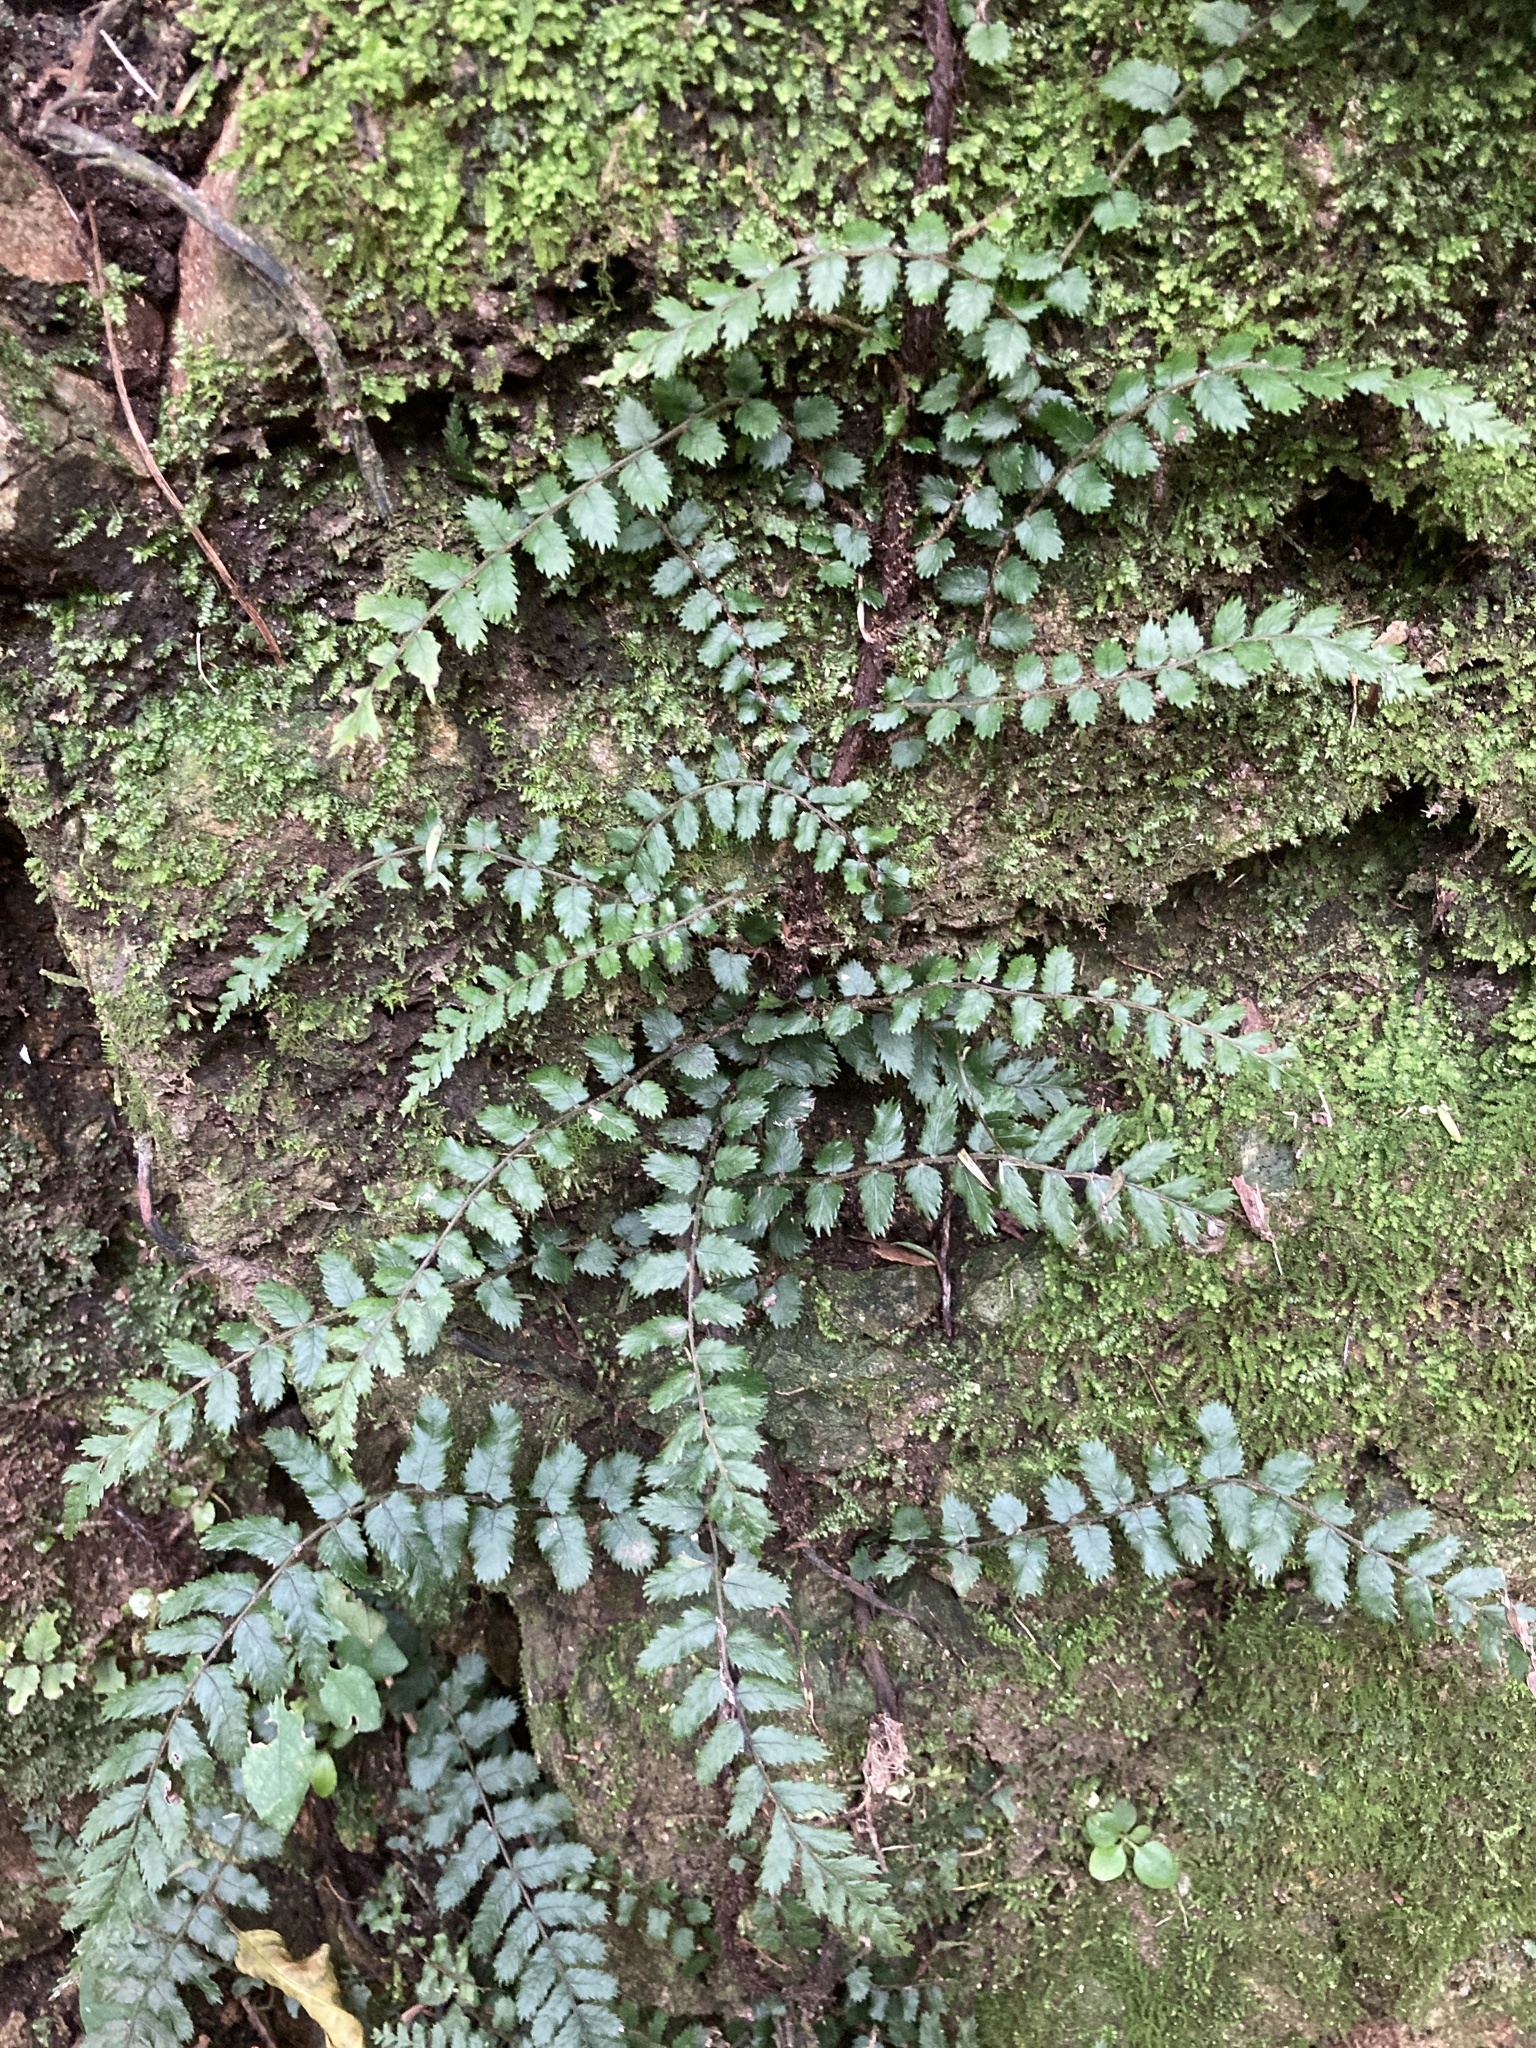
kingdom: Plantae
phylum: Tracheophyta
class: Polypodiopsida
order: Polypodiales
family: Blechnaceae
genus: Icarus
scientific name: Icarus filiformis
